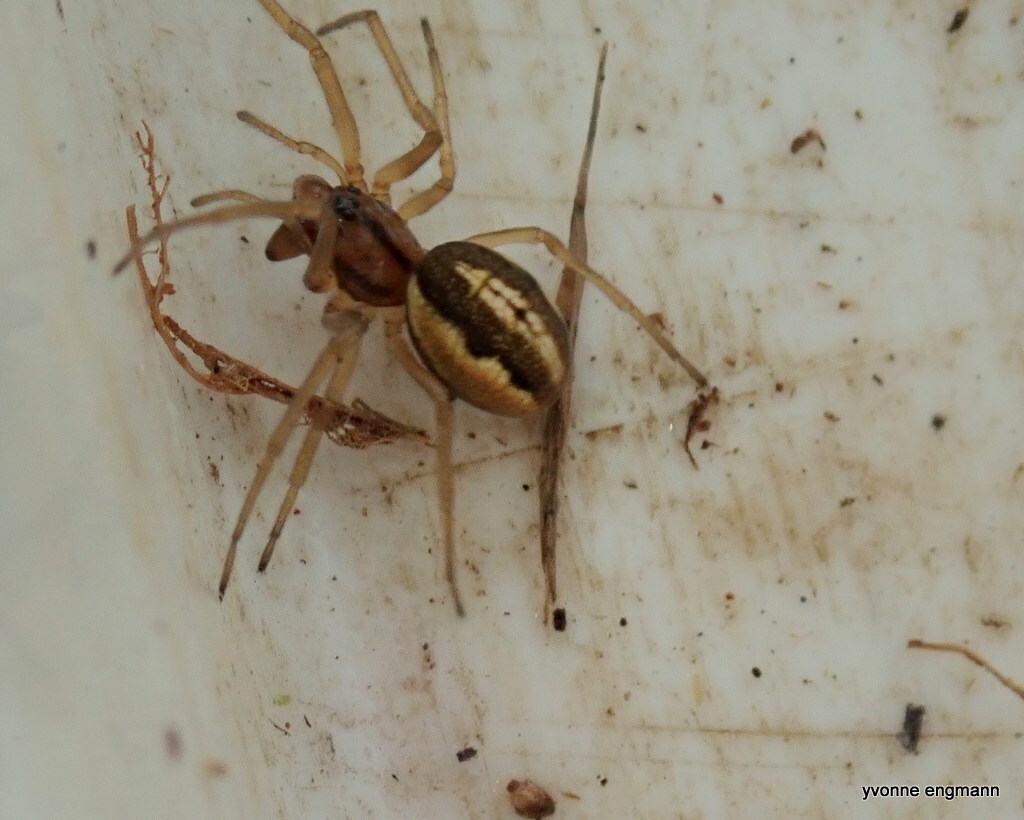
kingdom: Animalia
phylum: Arthropoda
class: Arachnida
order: Araneae
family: Tetragnathidae
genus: Pachygnatha
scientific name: Pachygnatha clercki
